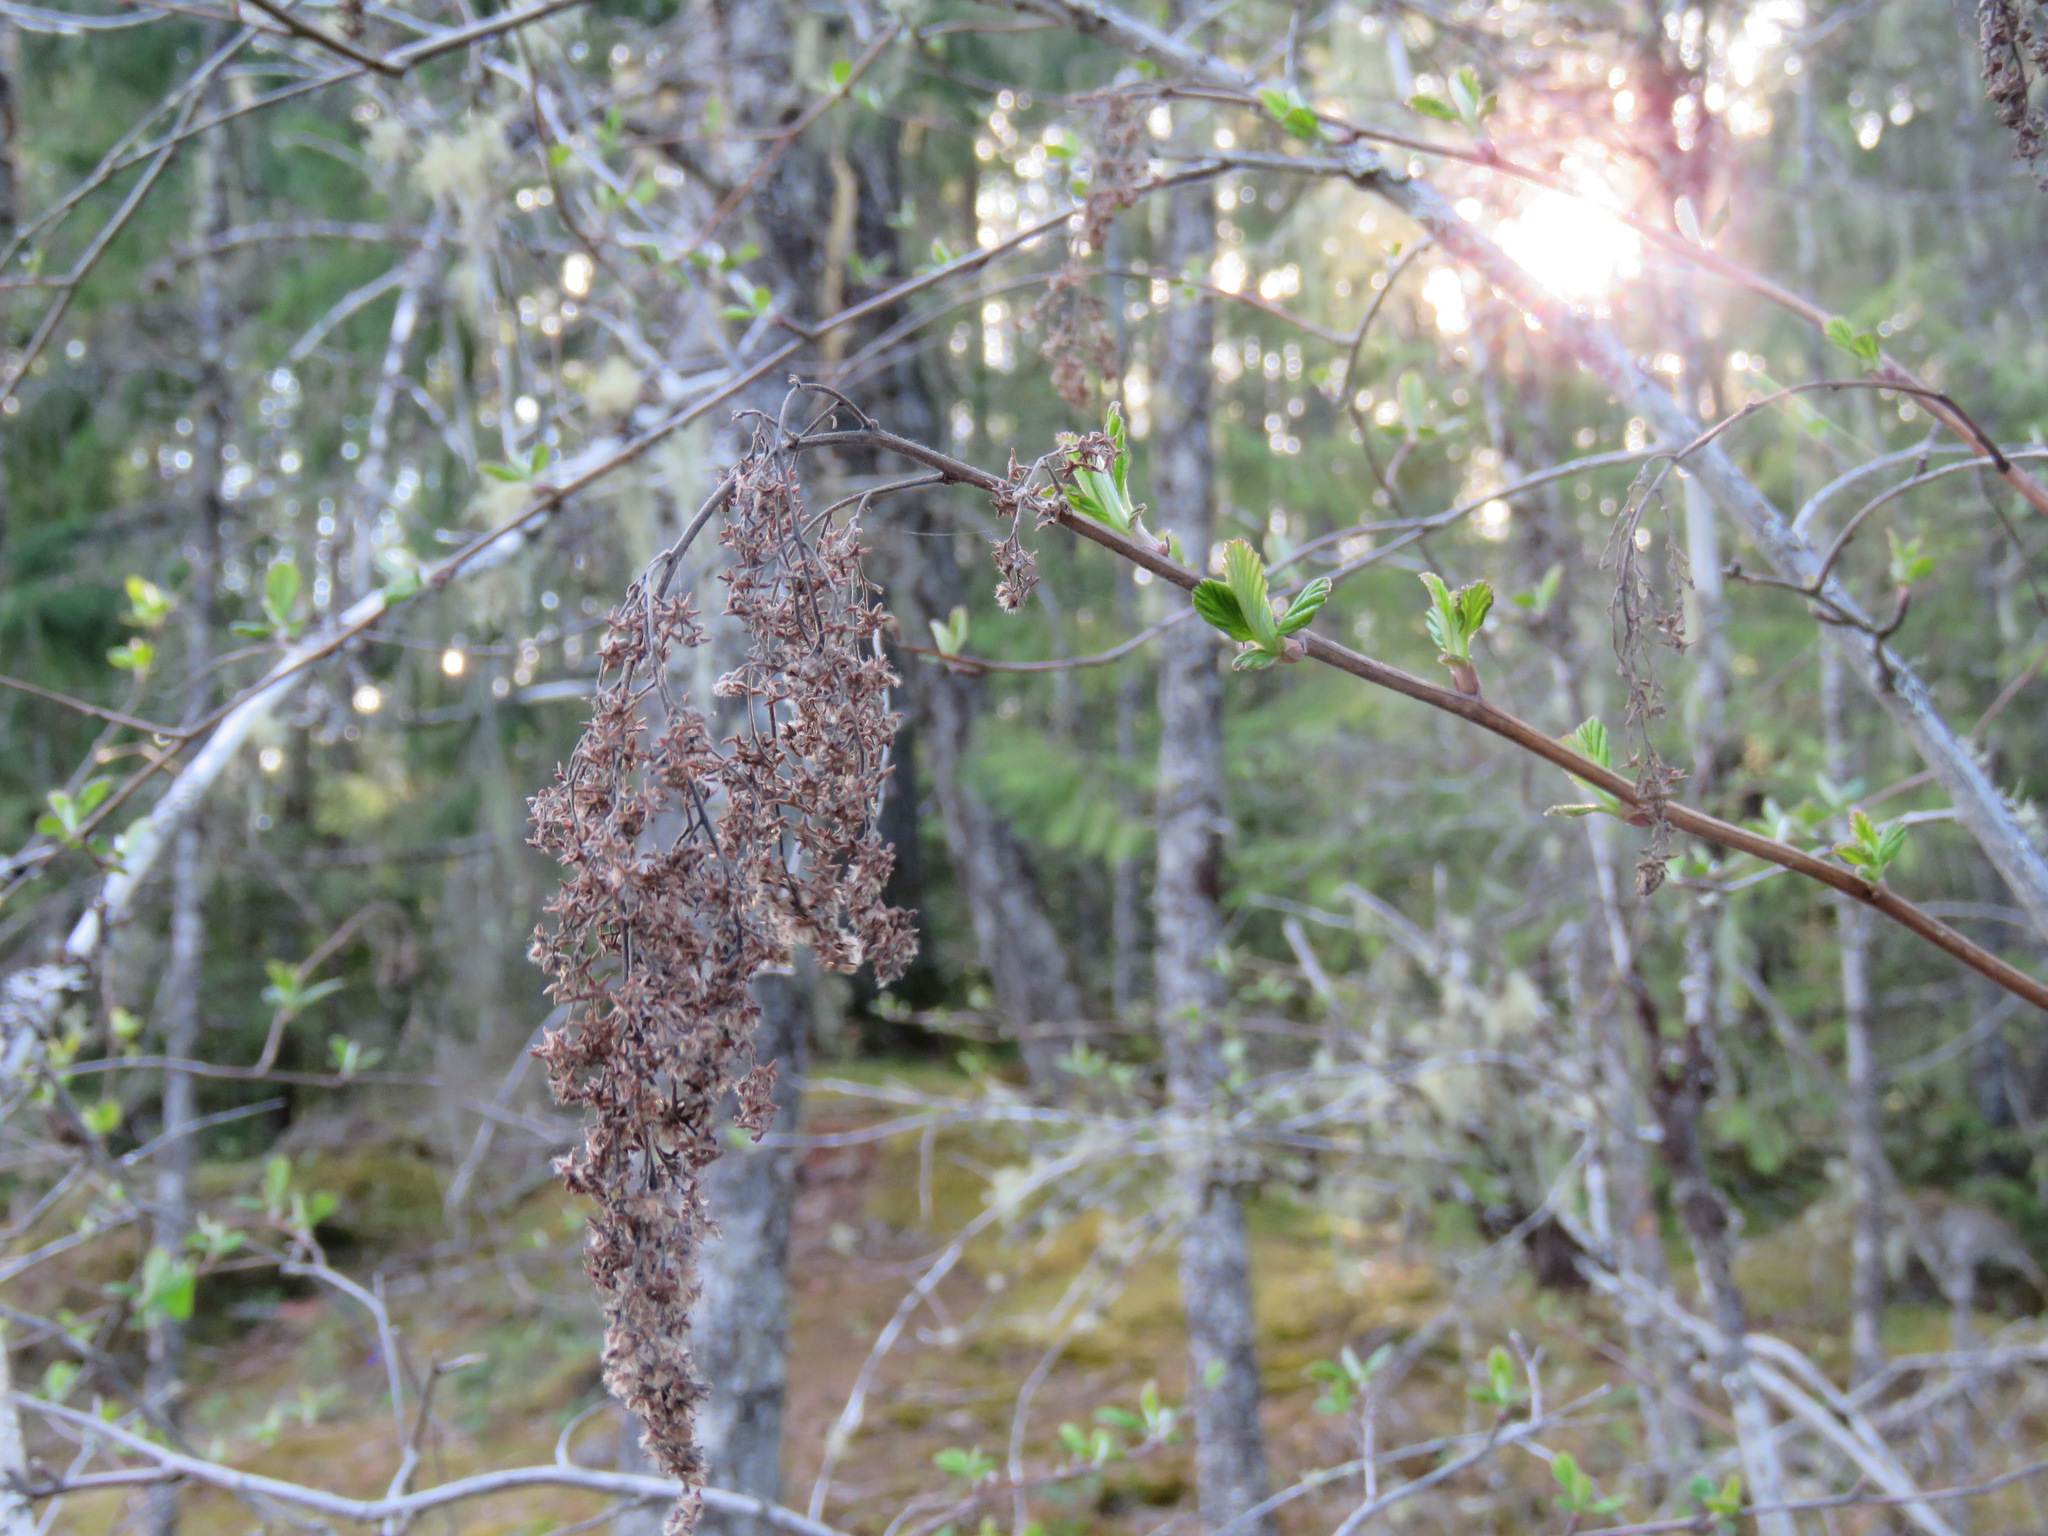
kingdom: Plantae
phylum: Tracheophyta
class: Magnoliopsida
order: Rosales
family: Rosaceae
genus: Holodiscus
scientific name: Holodiscus discolor
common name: Oceanspray
